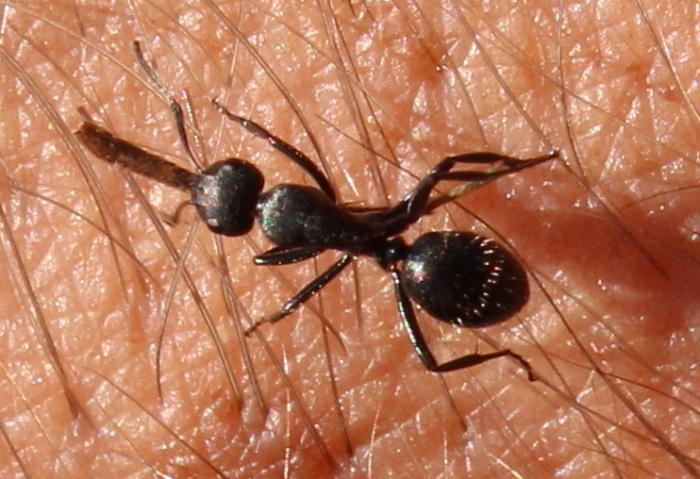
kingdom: Animalia
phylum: Arthropoda
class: Insecta
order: Hymenoptera
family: Formicidae
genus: Camponotus
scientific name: Camponotus niveosetosus
